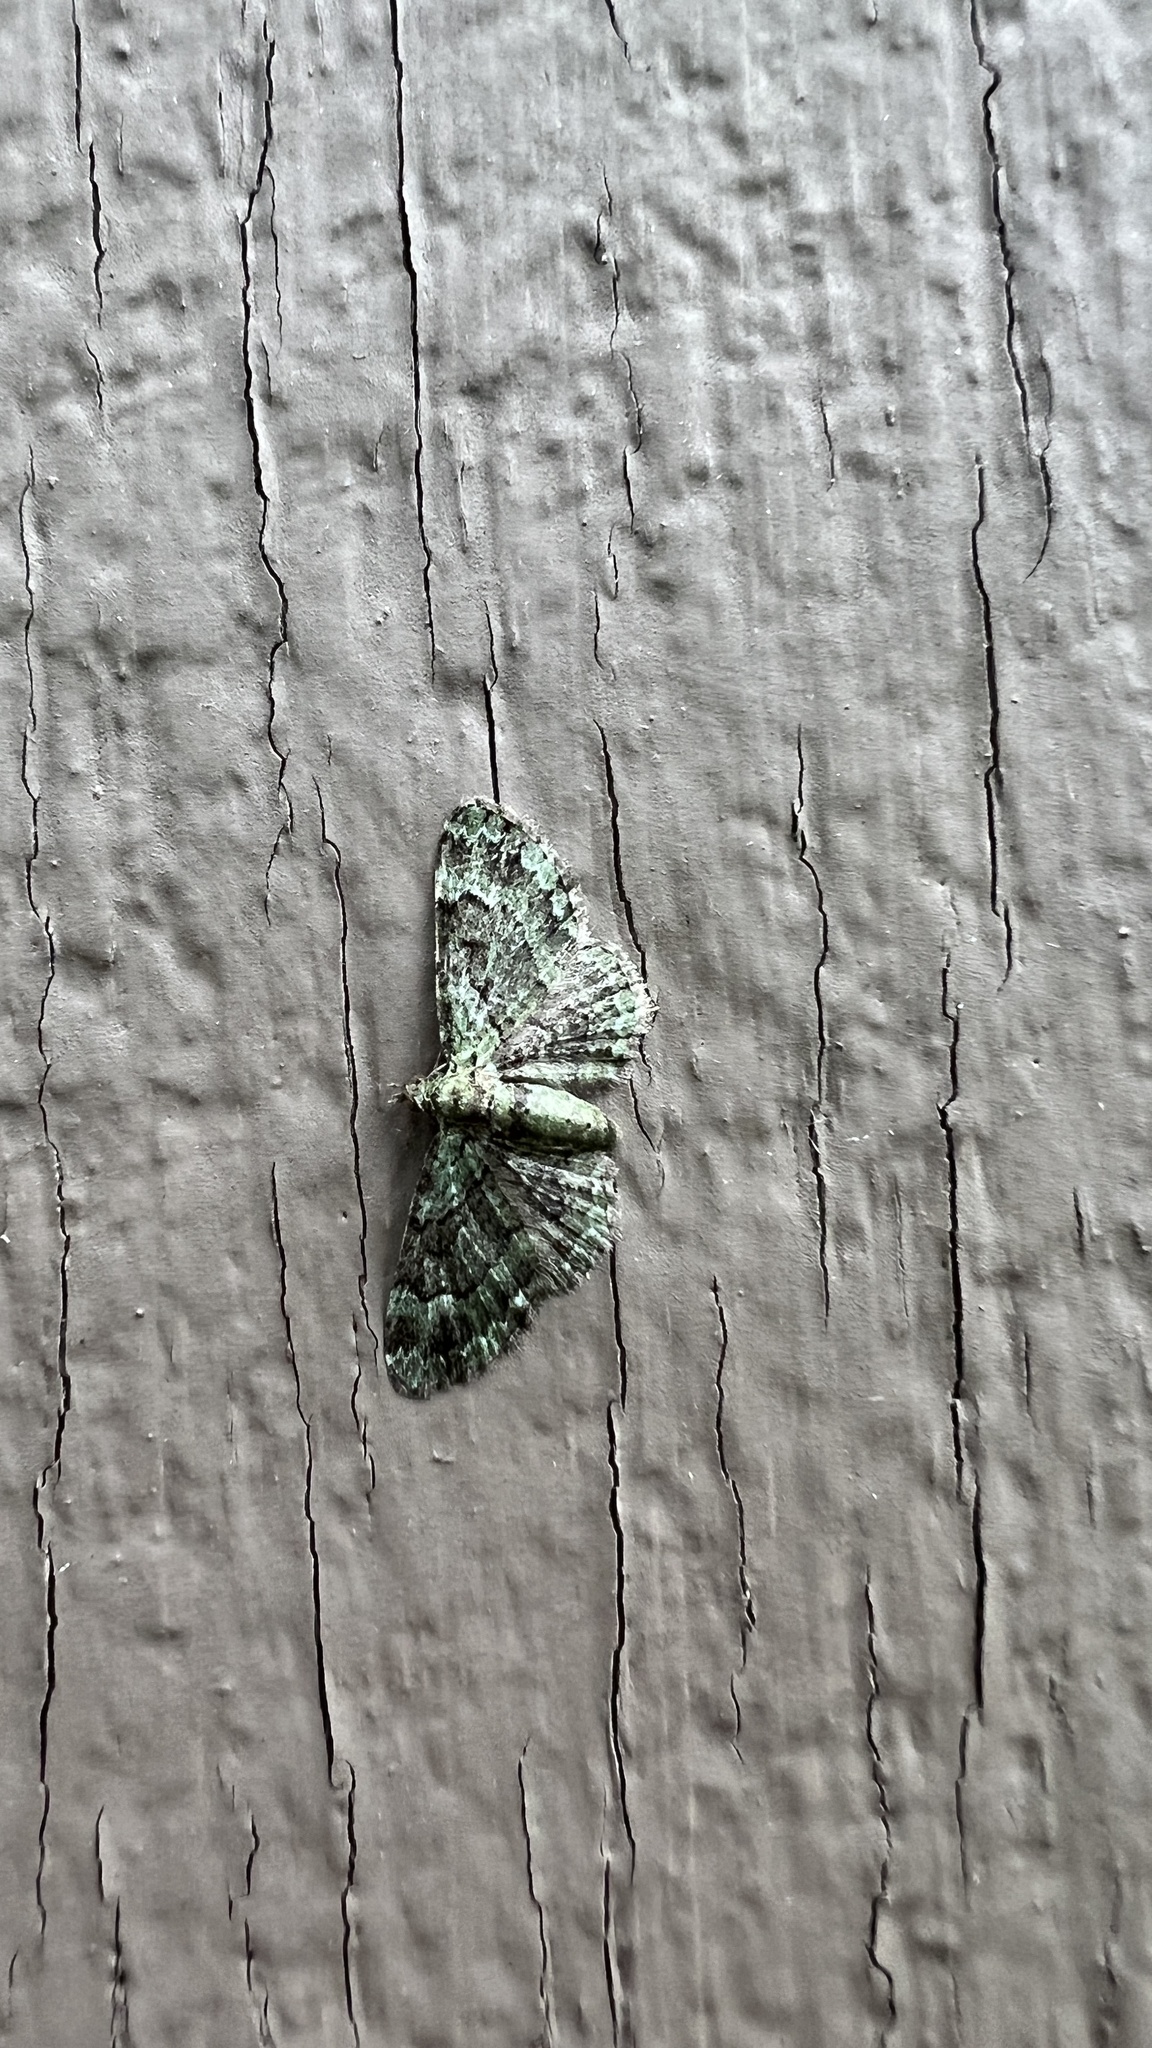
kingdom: Animalia
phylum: Arthropoda
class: Insecta
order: Lepidoptera
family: Geometridae
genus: Pasiphila
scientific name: Pasiphila rectangulata
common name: Green pug
